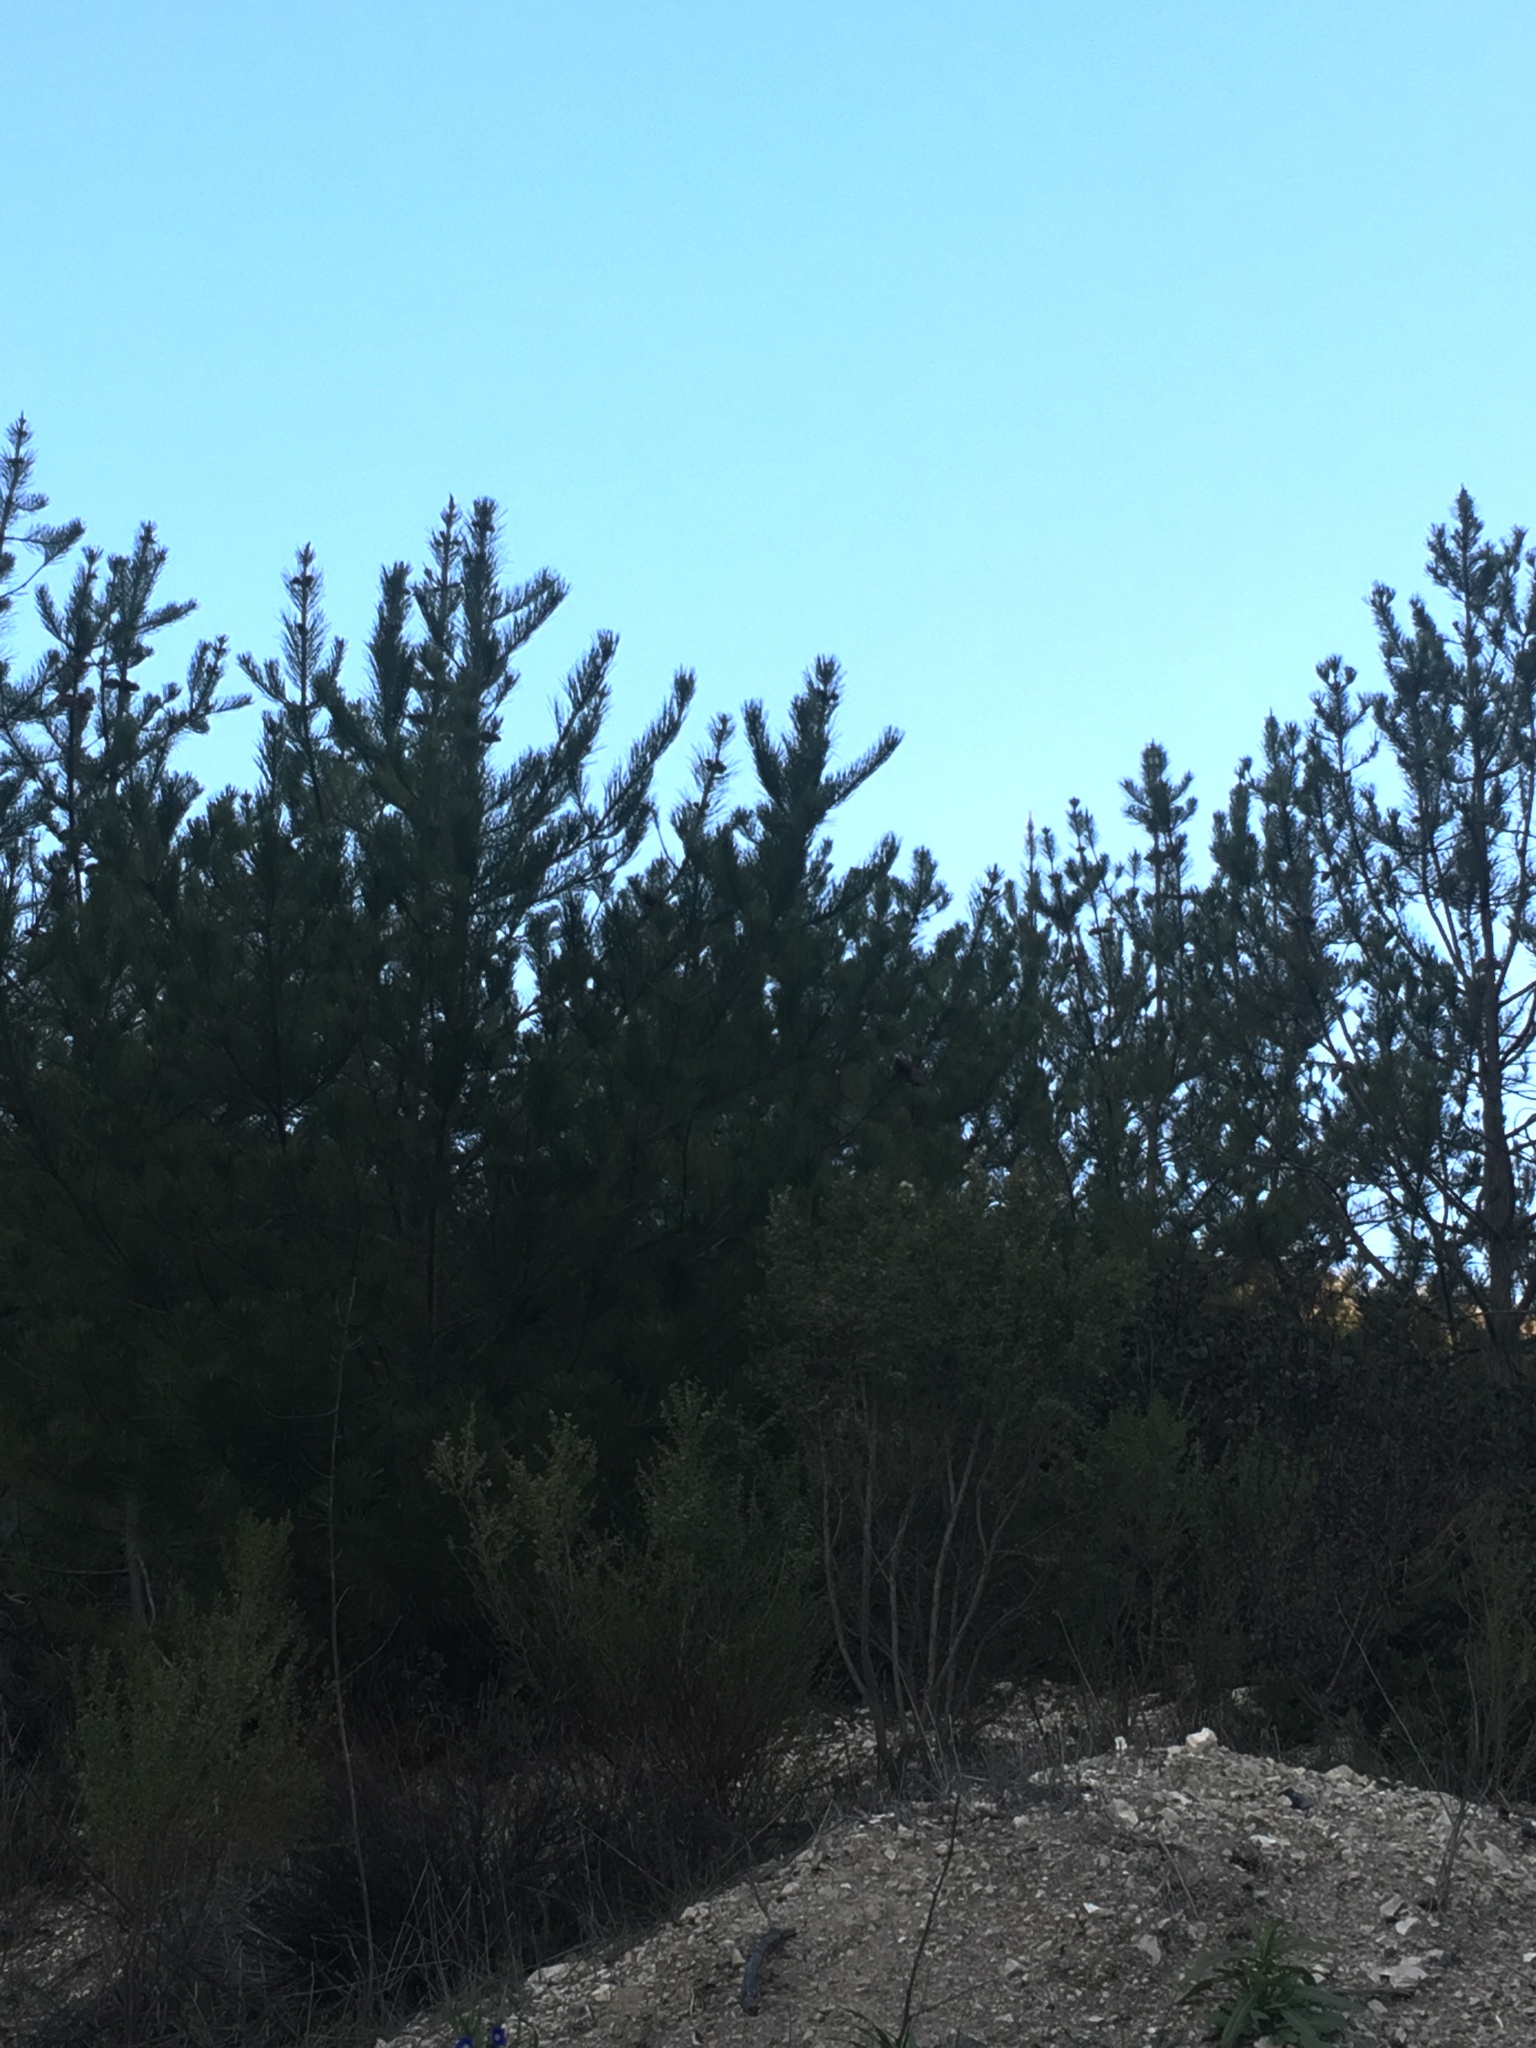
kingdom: Plantae
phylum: Tracheophyta
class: Pinopsida
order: Pinales
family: Pinaceae
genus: Pinus
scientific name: Pinus muricata
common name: Bishop pine
